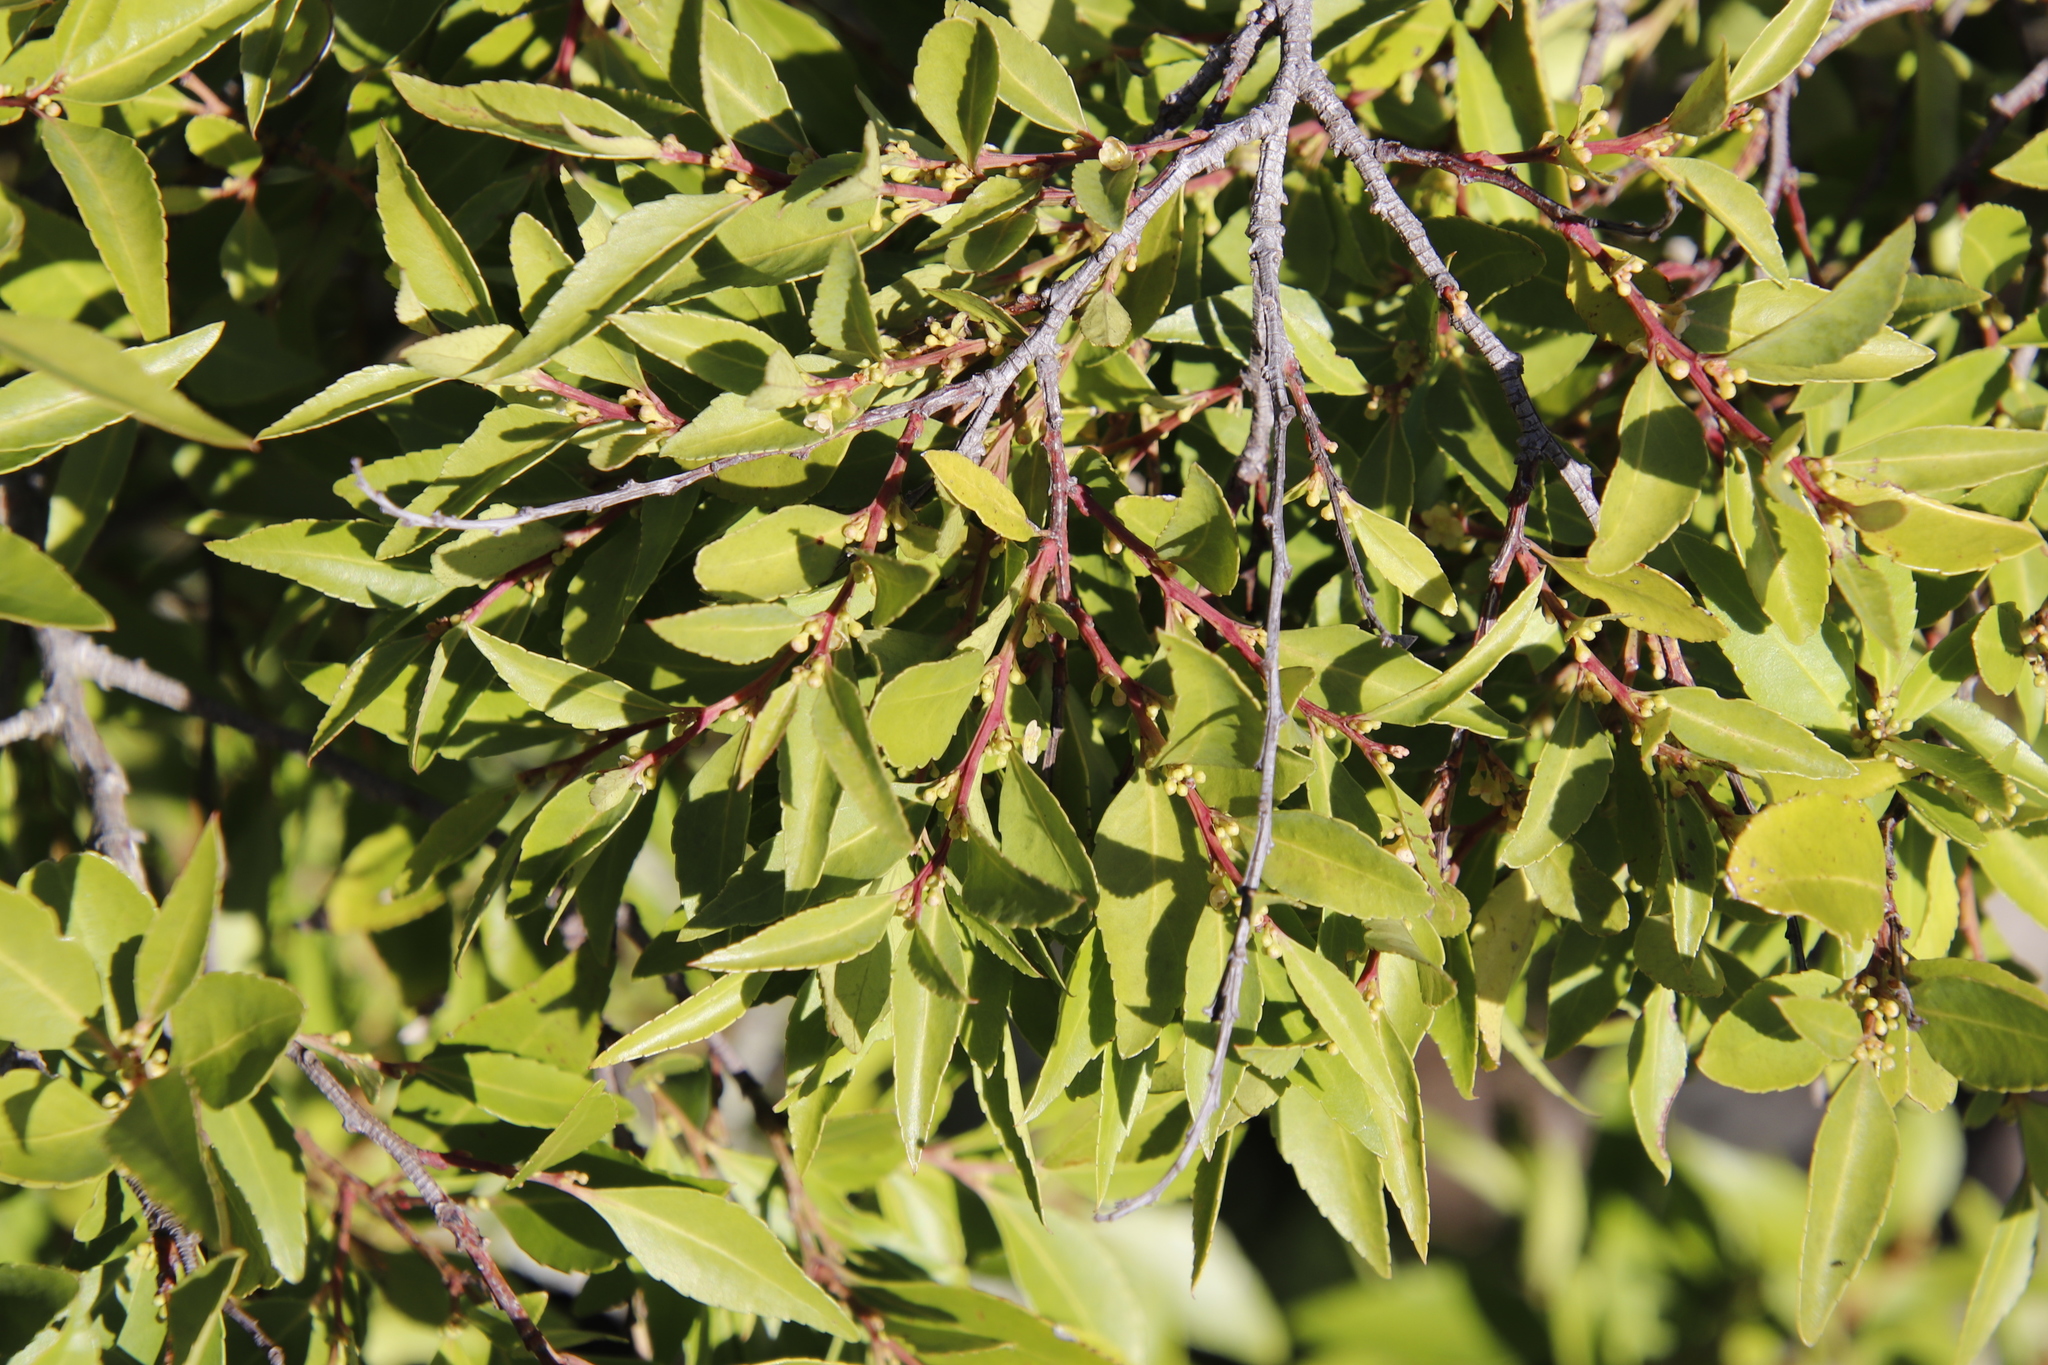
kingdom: Plantae
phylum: Tracheophyta
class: Magnoliopsida
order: Celastrales
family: Celastraceae
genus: Gymnosporia
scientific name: Gymnosporia acuminata
